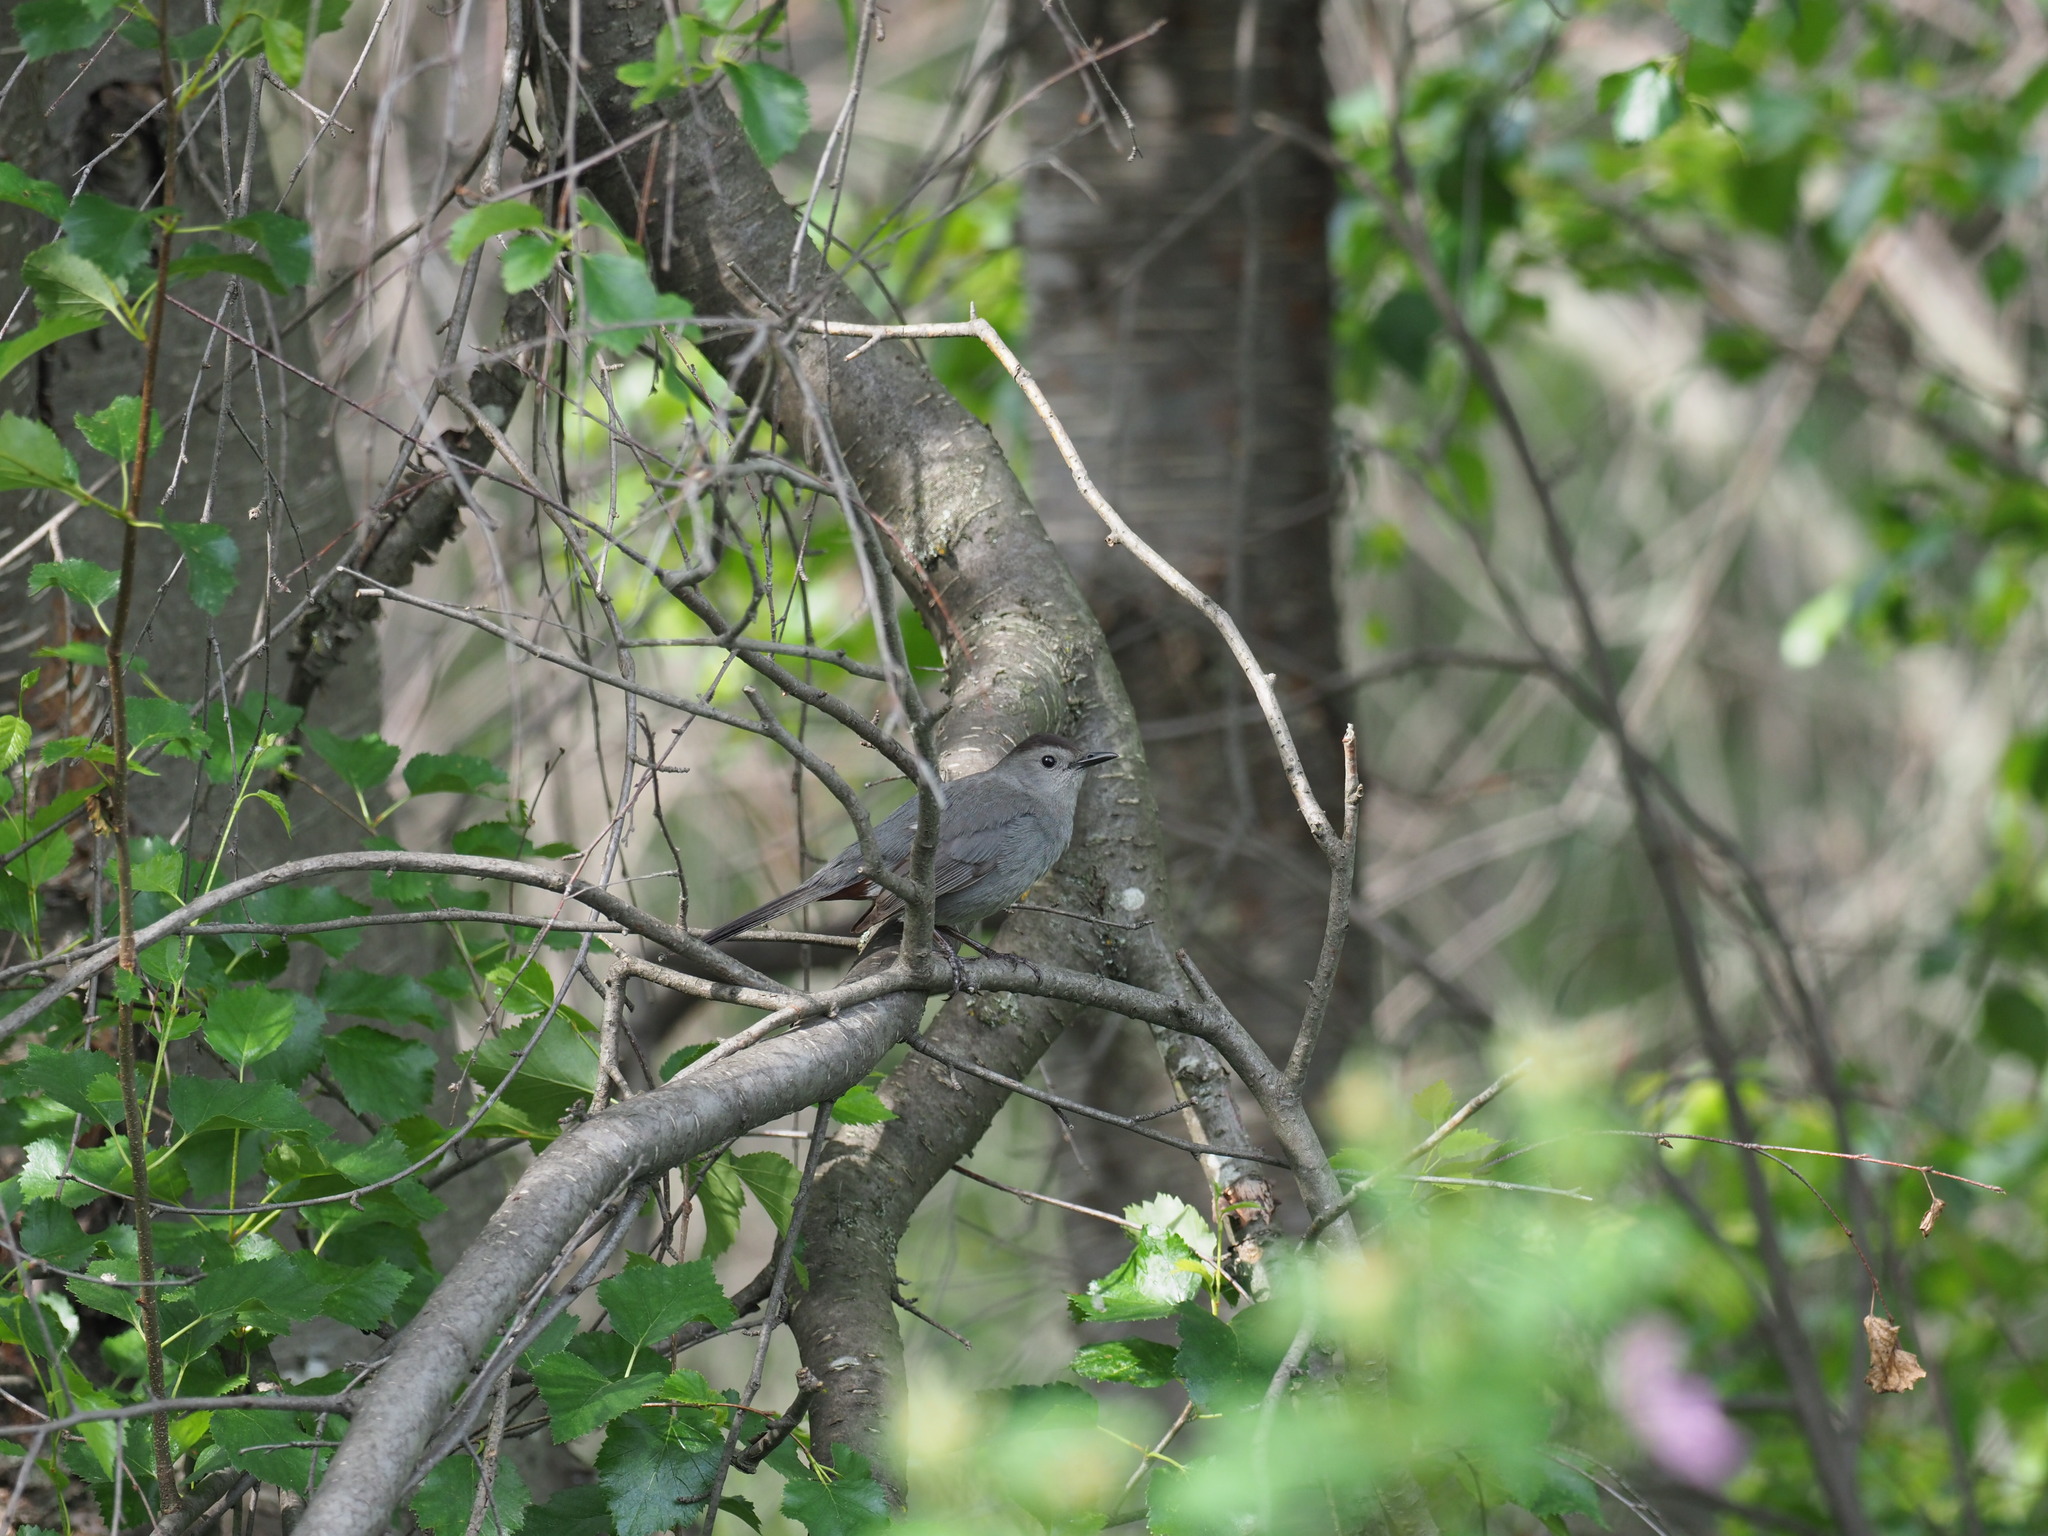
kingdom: Animalia
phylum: Chordata
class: Aves
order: Passeriformes
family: Mimidae
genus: Dumetella
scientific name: Dumetella carolinensis
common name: Gray catbird
